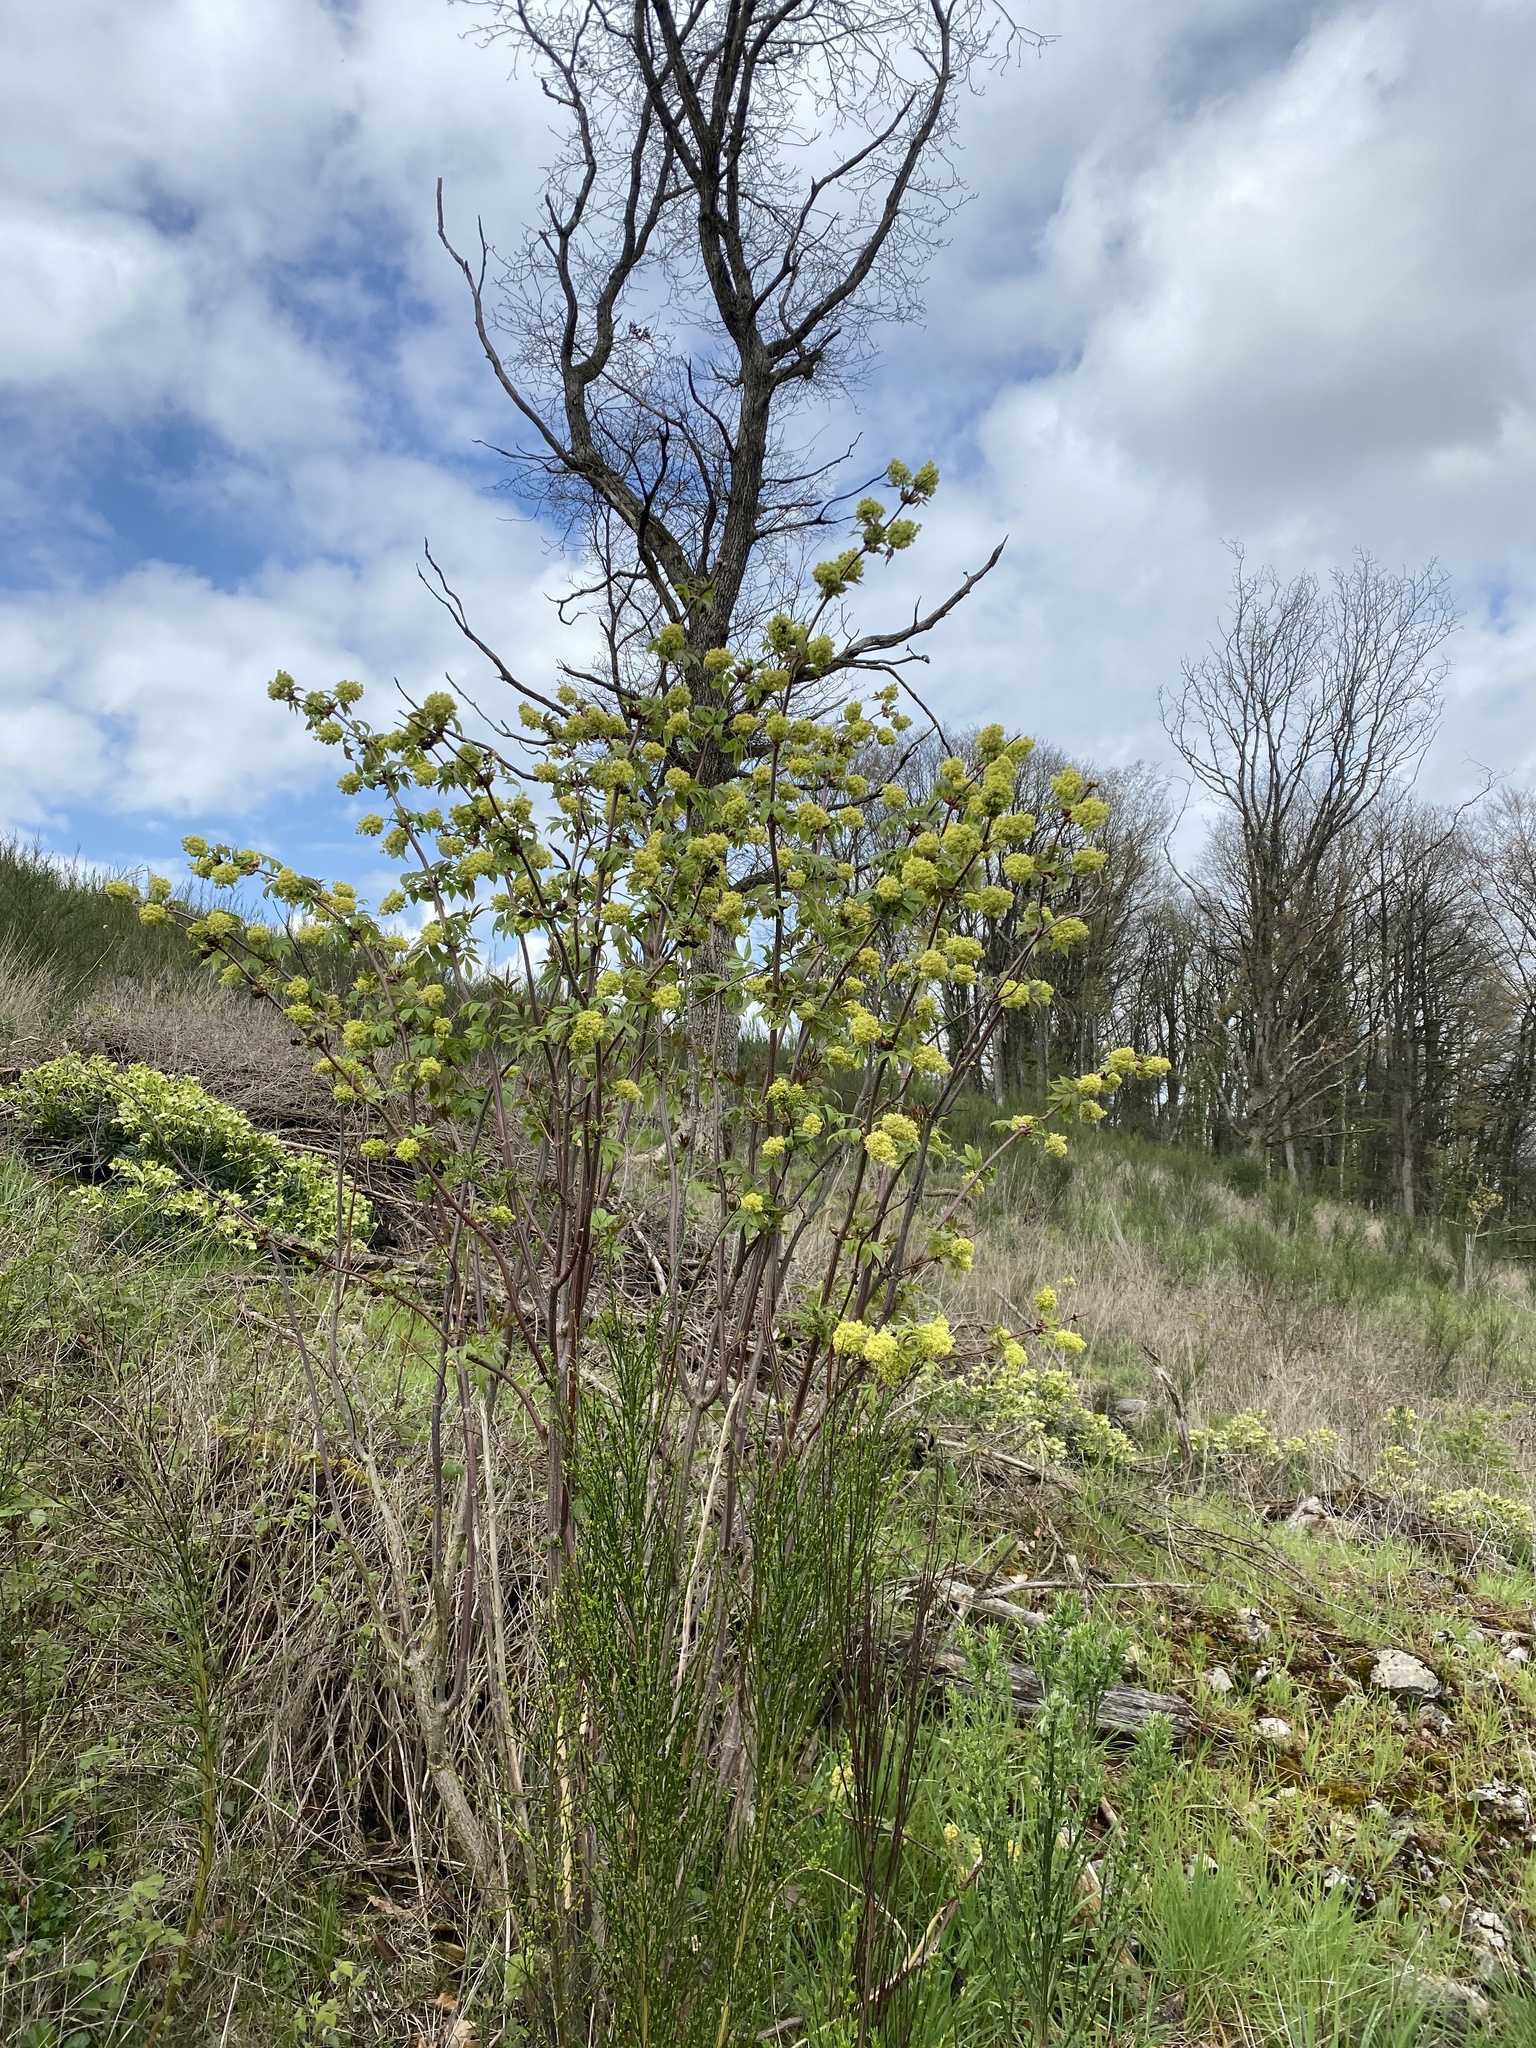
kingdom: Plantae
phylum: Tracheophyta
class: Magnoliopsida
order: Dipsacales
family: Viburnaceae
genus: Sambucus
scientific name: Sambucus racemosa
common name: Red-berried elder
